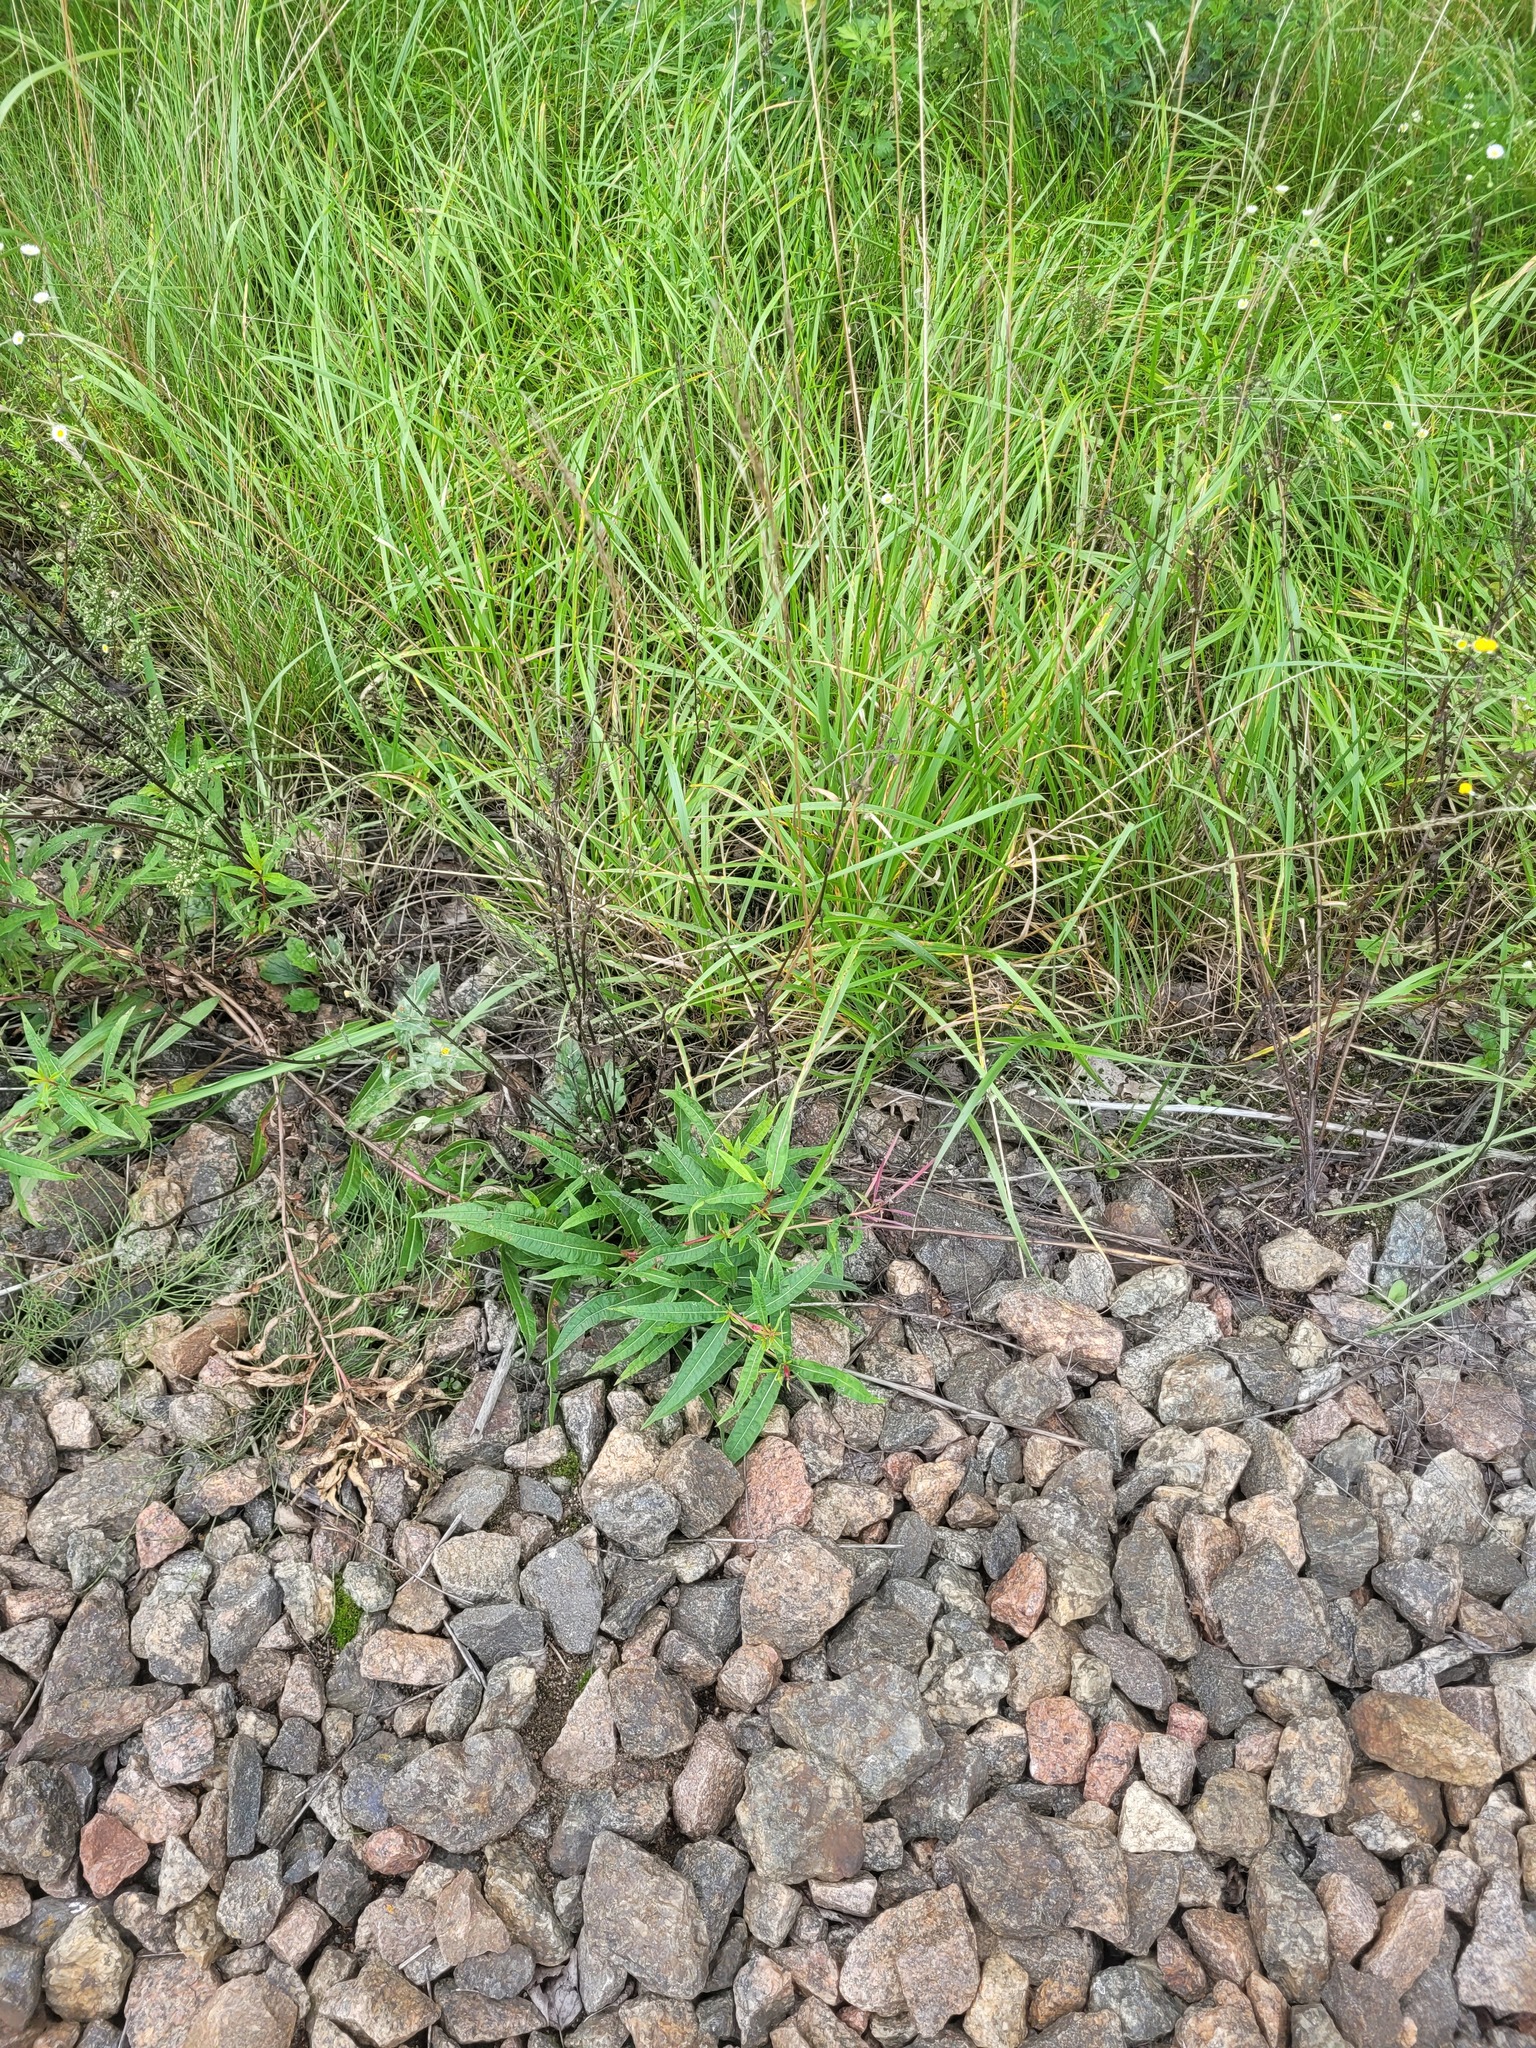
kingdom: Plantae
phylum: Tracheophyta
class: Magnoliopsida
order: Myrtales
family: Onagraceae
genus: Chamaenerion
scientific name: Chamaenerion angustifolium
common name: Fireweed
